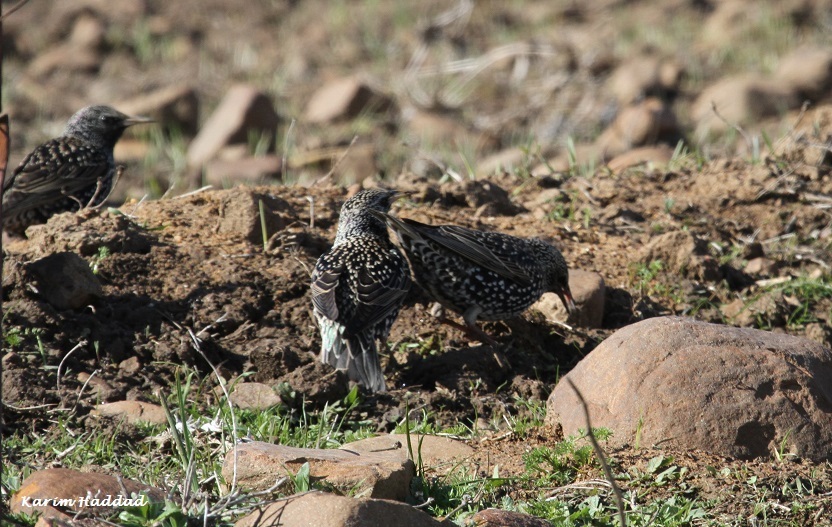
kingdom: Animalia
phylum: Chordata
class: Aves
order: Passeriformes
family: Sturnidae
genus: Sturnus
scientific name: Sturnus vulgaris
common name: Common starling
